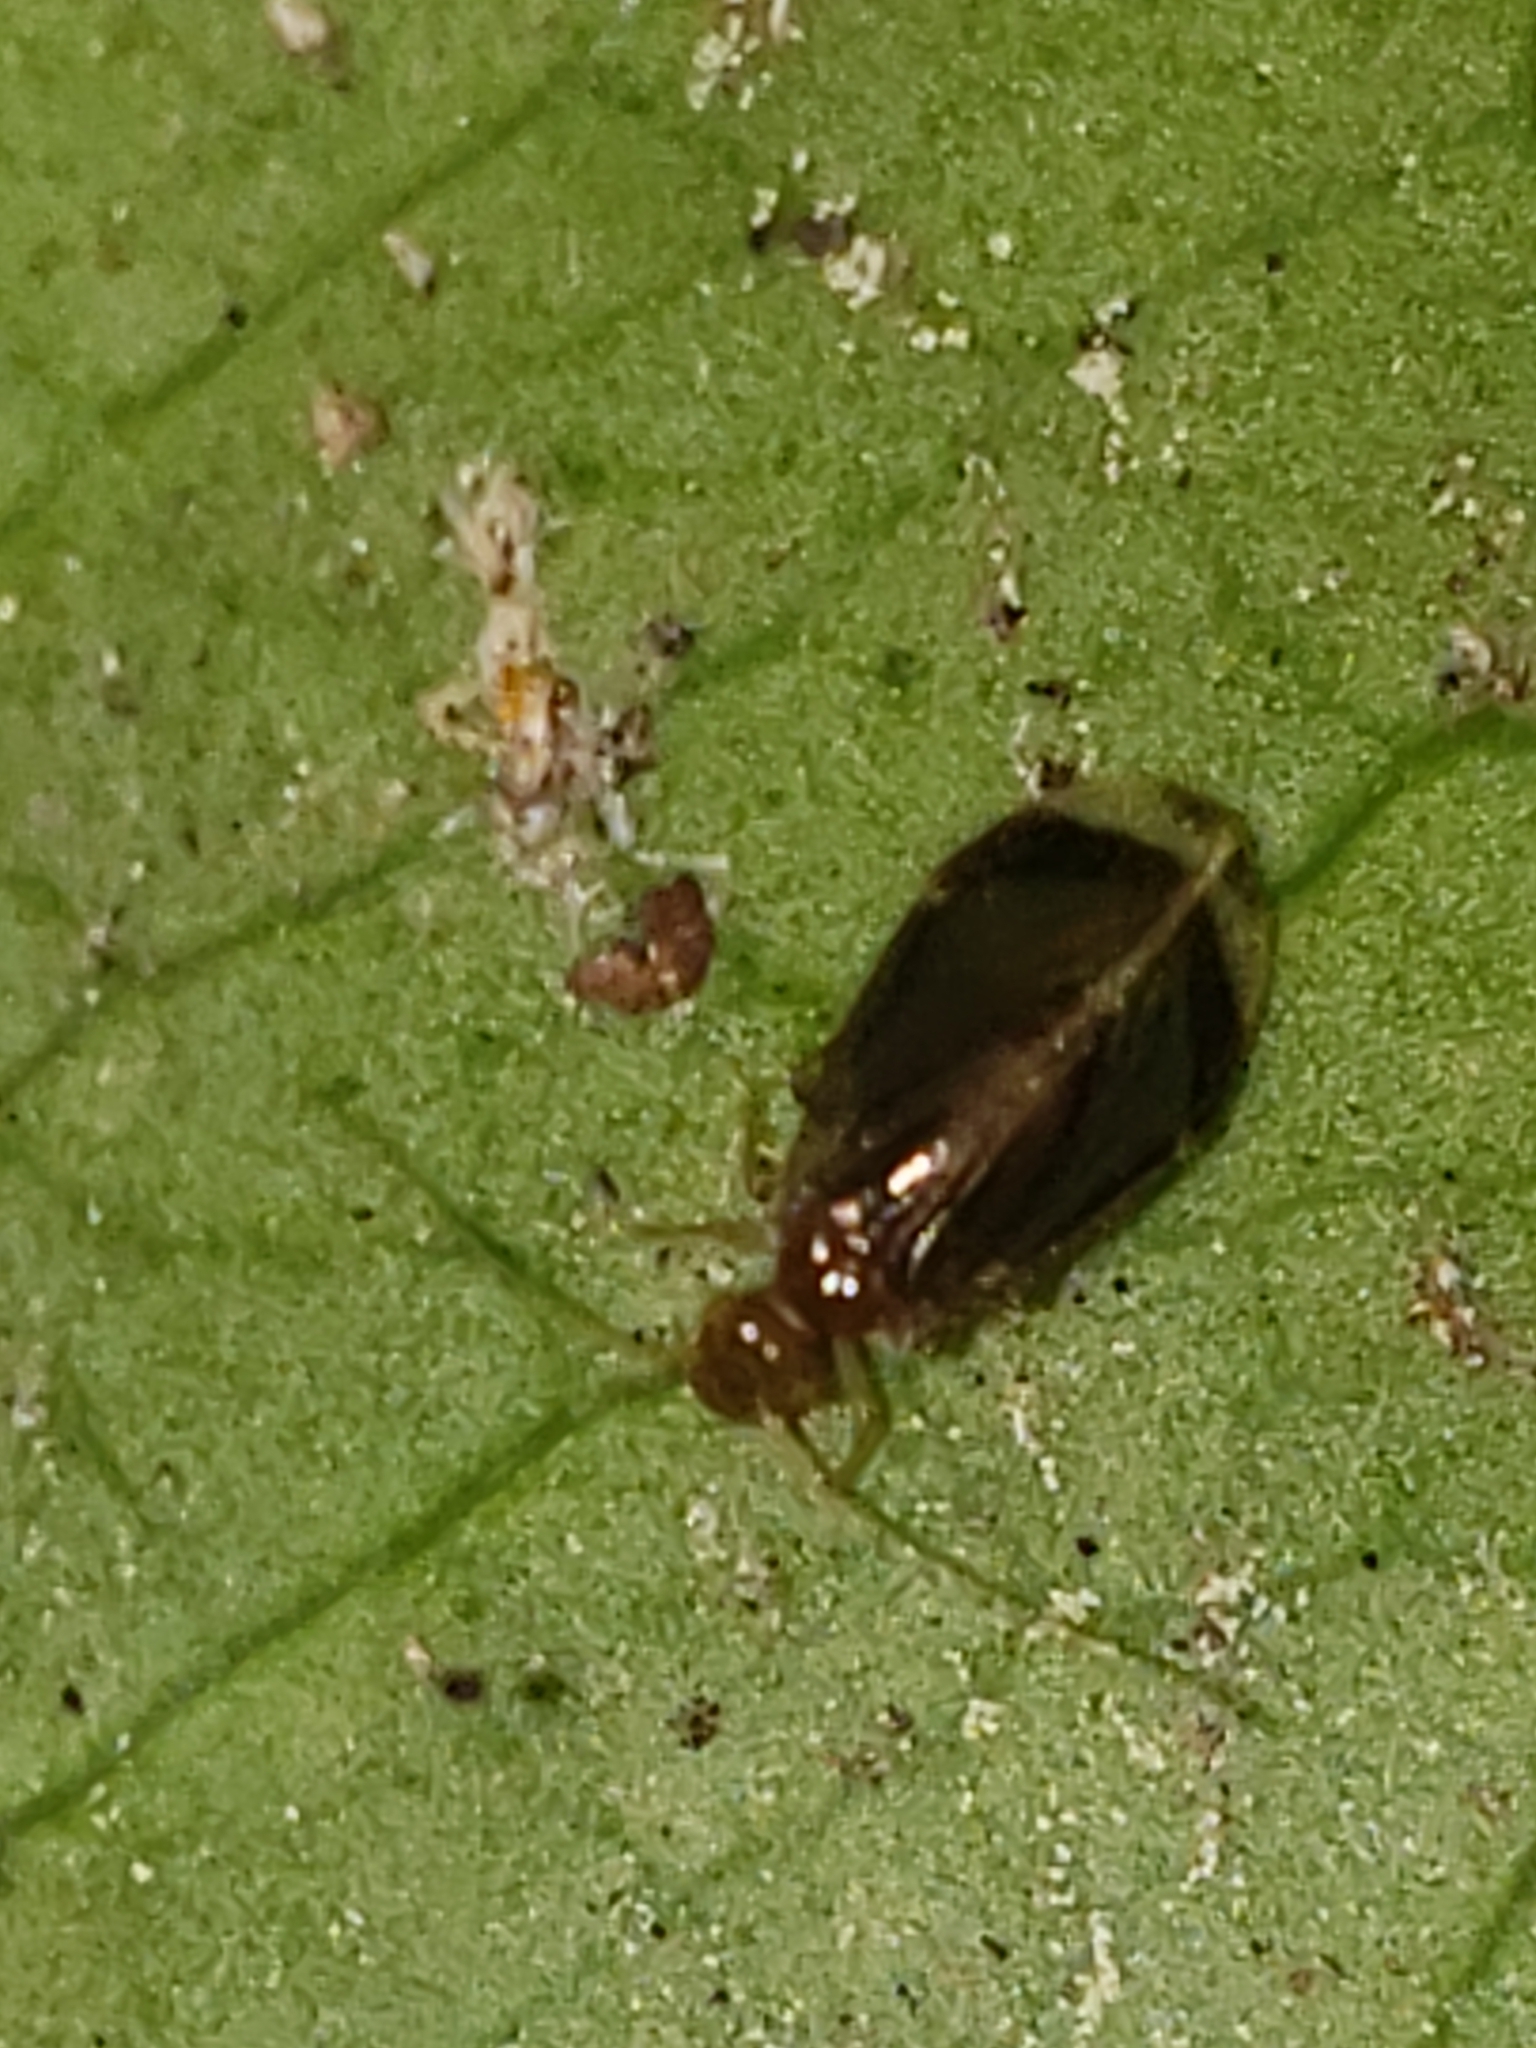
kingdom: Animalia
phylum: Arthropoda
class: Insecta
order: Psocodea
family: Amphipsocidae
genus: Polypsocus
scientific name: Polypsocus corruptus
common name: Corrupt barklouse
